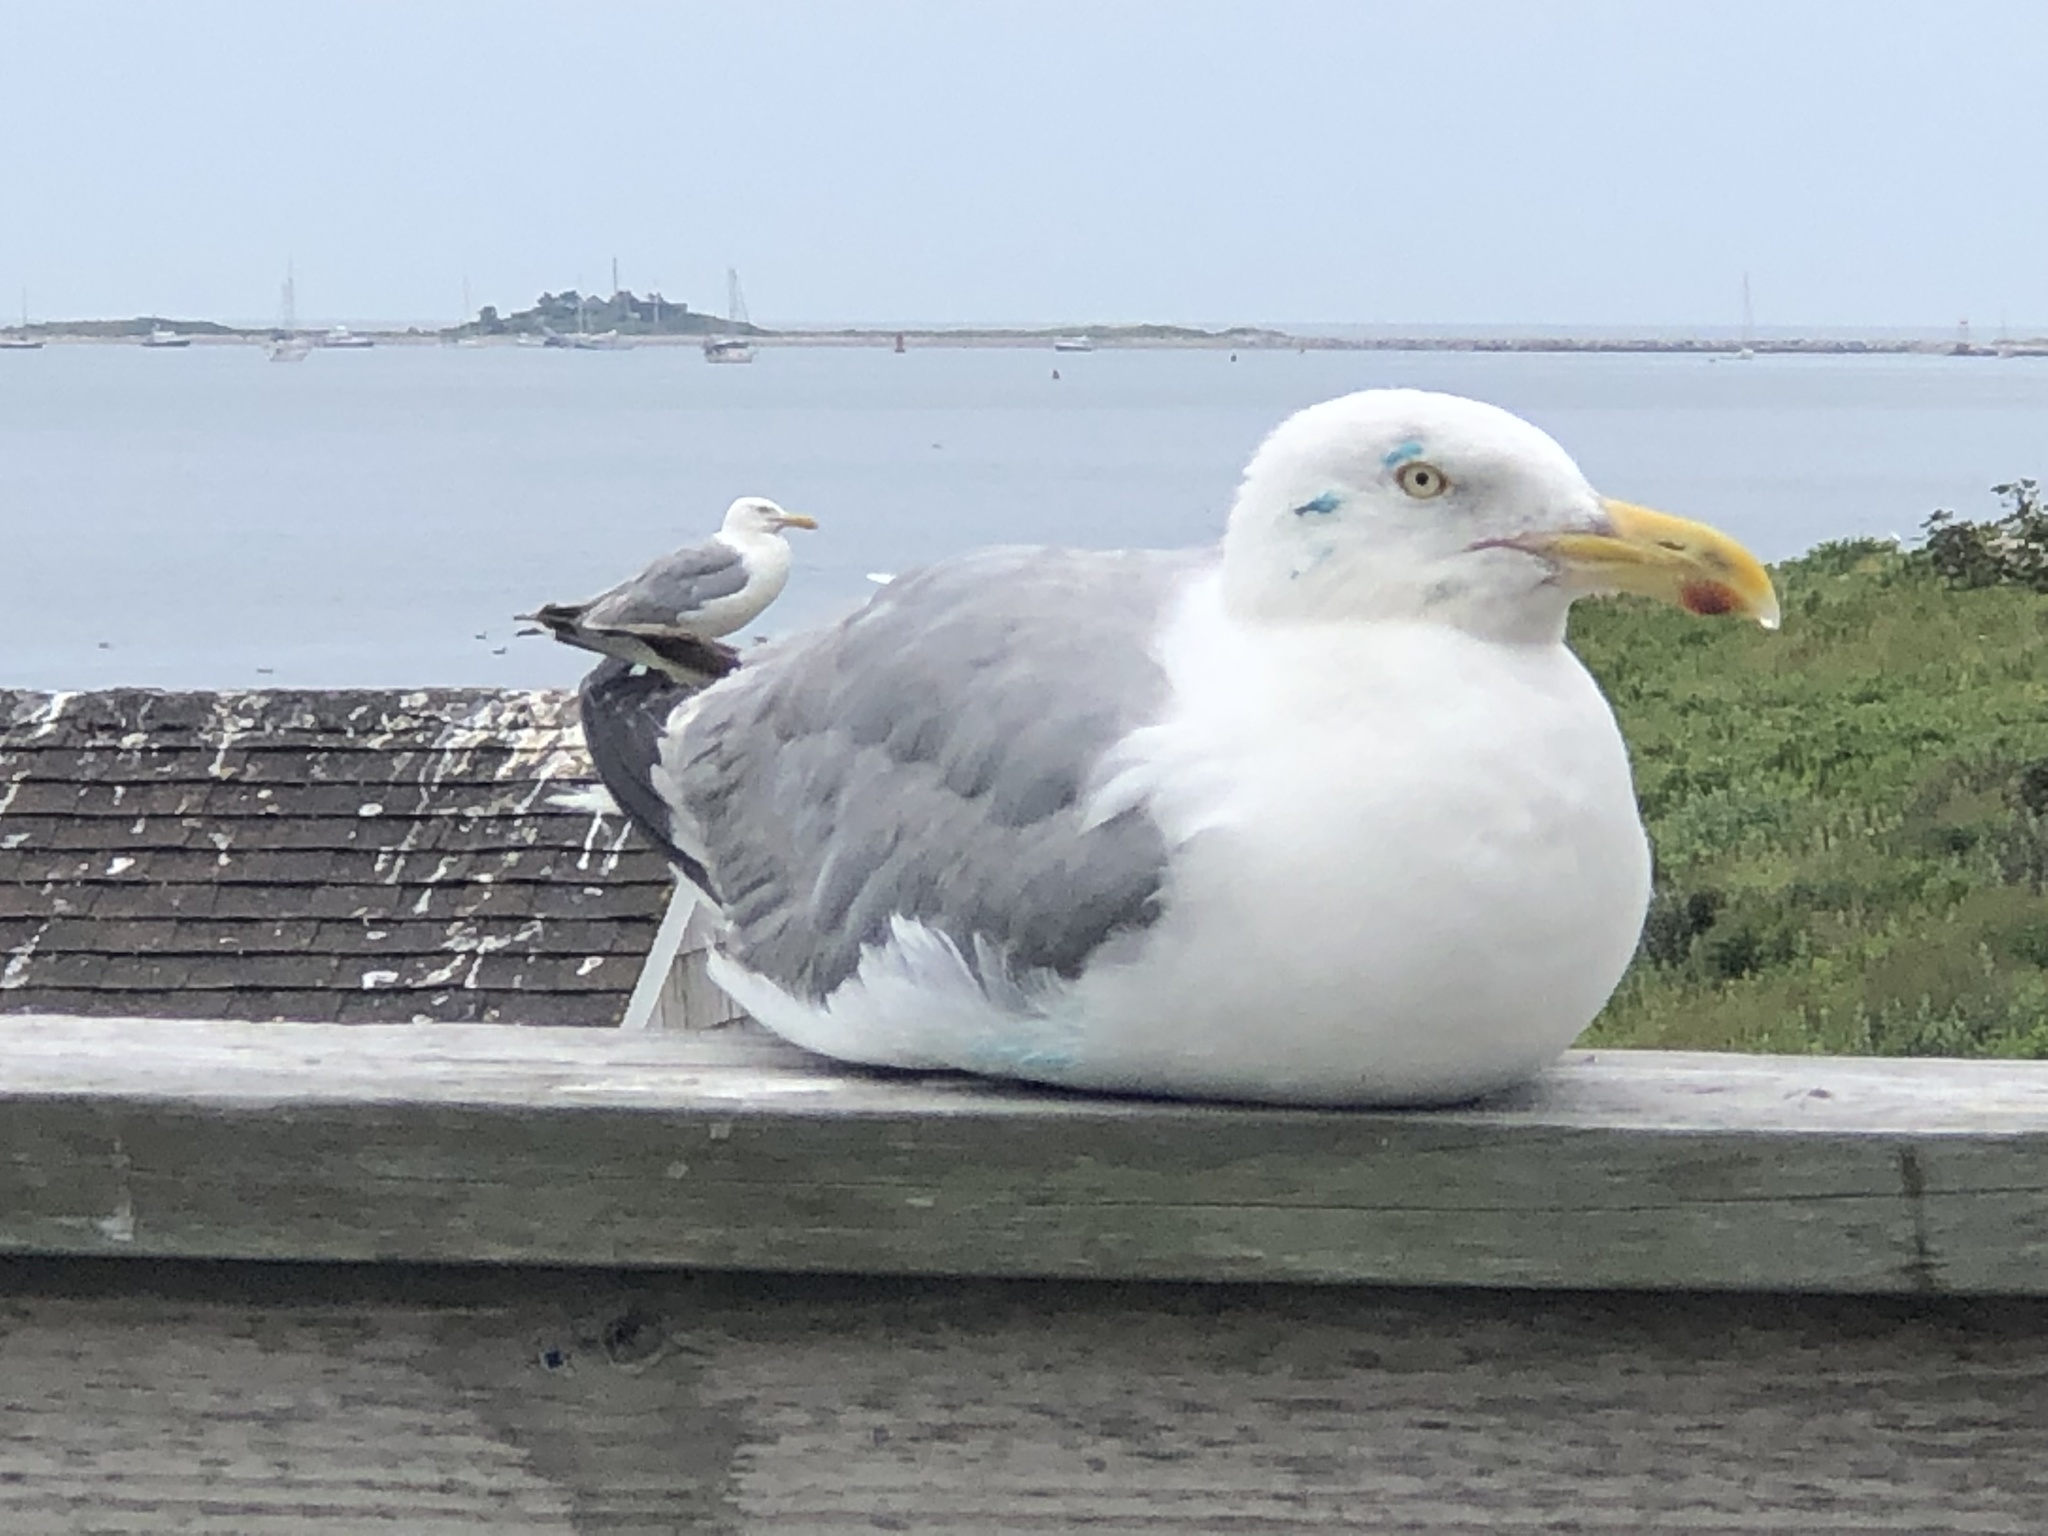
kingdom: Animalia
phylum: Chordata
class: Aves
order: Charadriiformes
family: Laridae
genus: Larus
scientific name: Larus argentatus
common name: Herring gull
